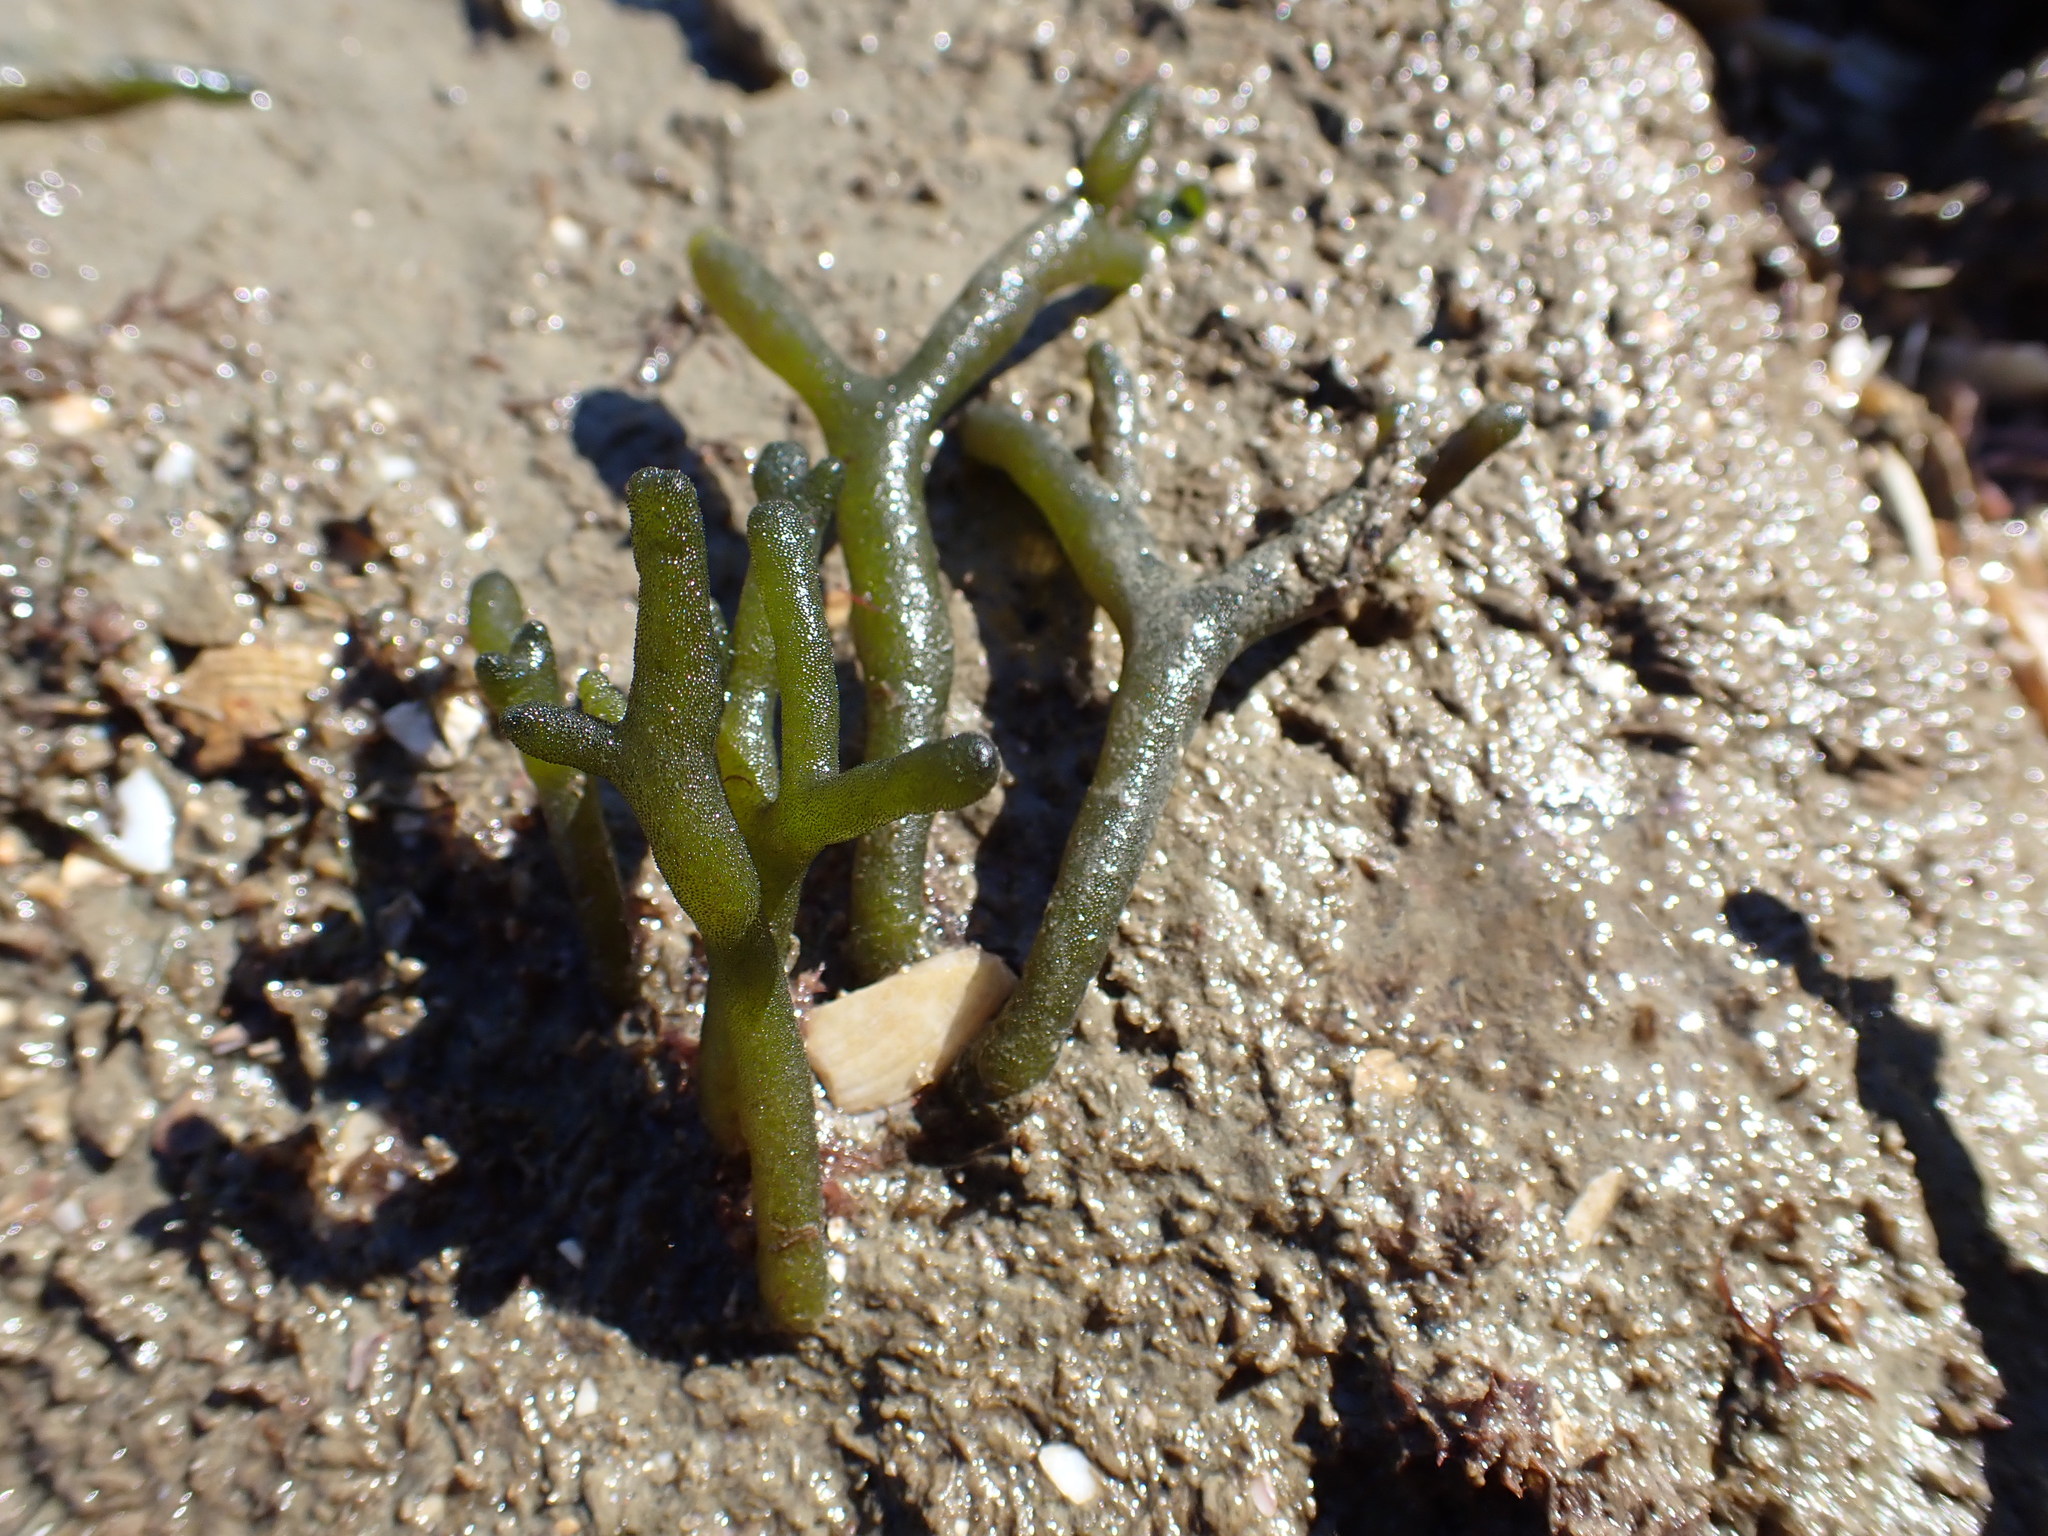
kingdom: Plantae
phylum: Chlorophyta
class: Ulvophyceae
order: Bryopsidales
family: Codiaceae
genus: Codium
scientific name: Codium fragile
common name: Dead man's fingers
